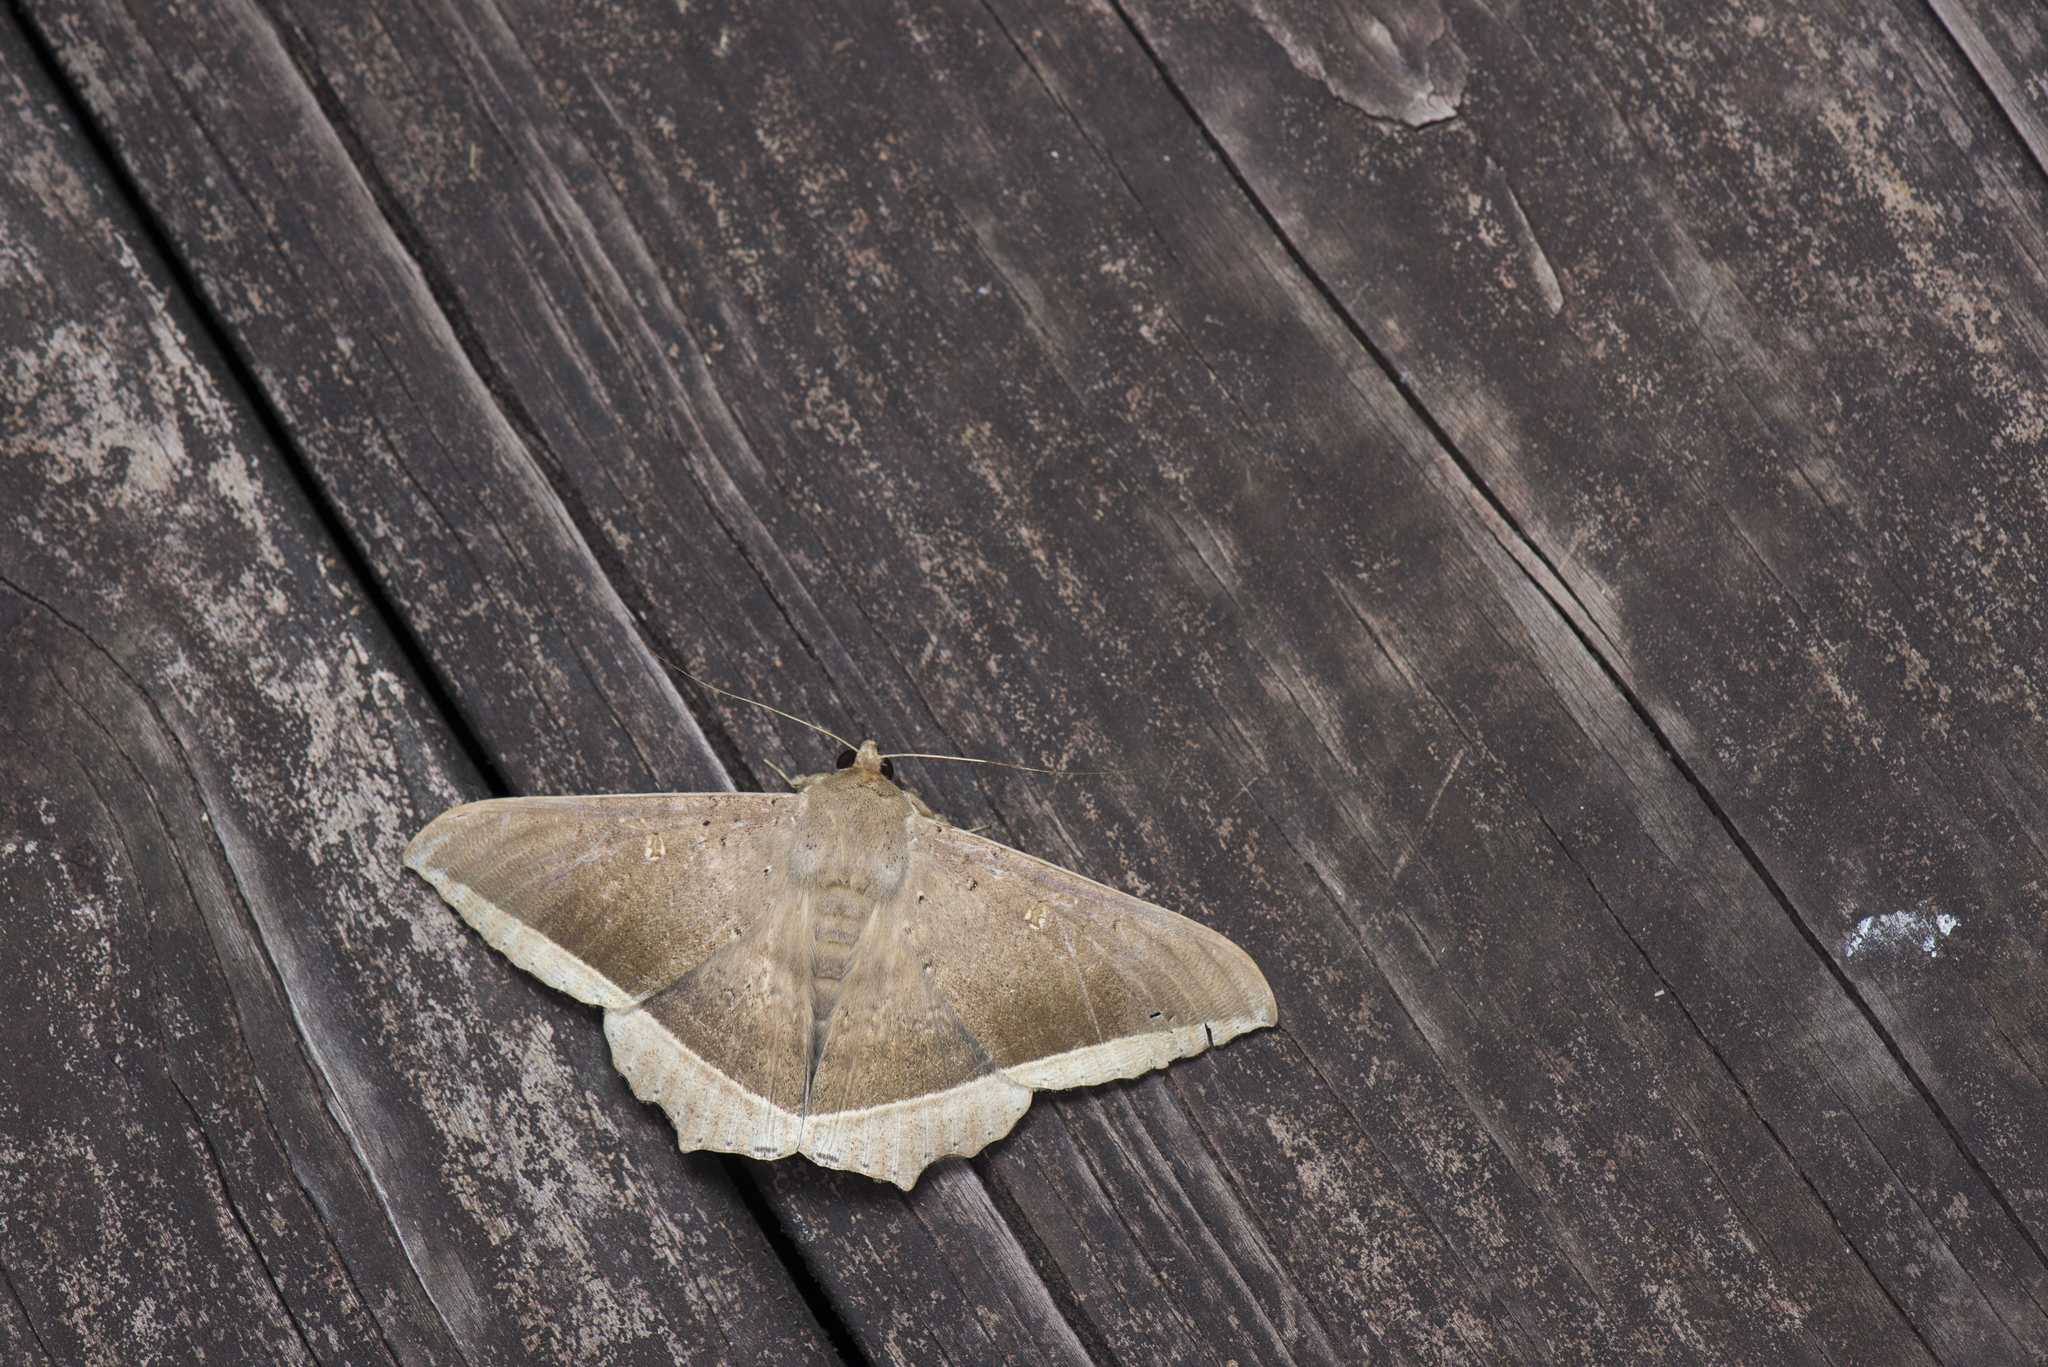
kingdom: Animalia
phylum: Arthropoda
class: Insecta
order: Lepidoptera
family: Erebidae
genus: Hulodes
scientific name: Hulodes caranea
